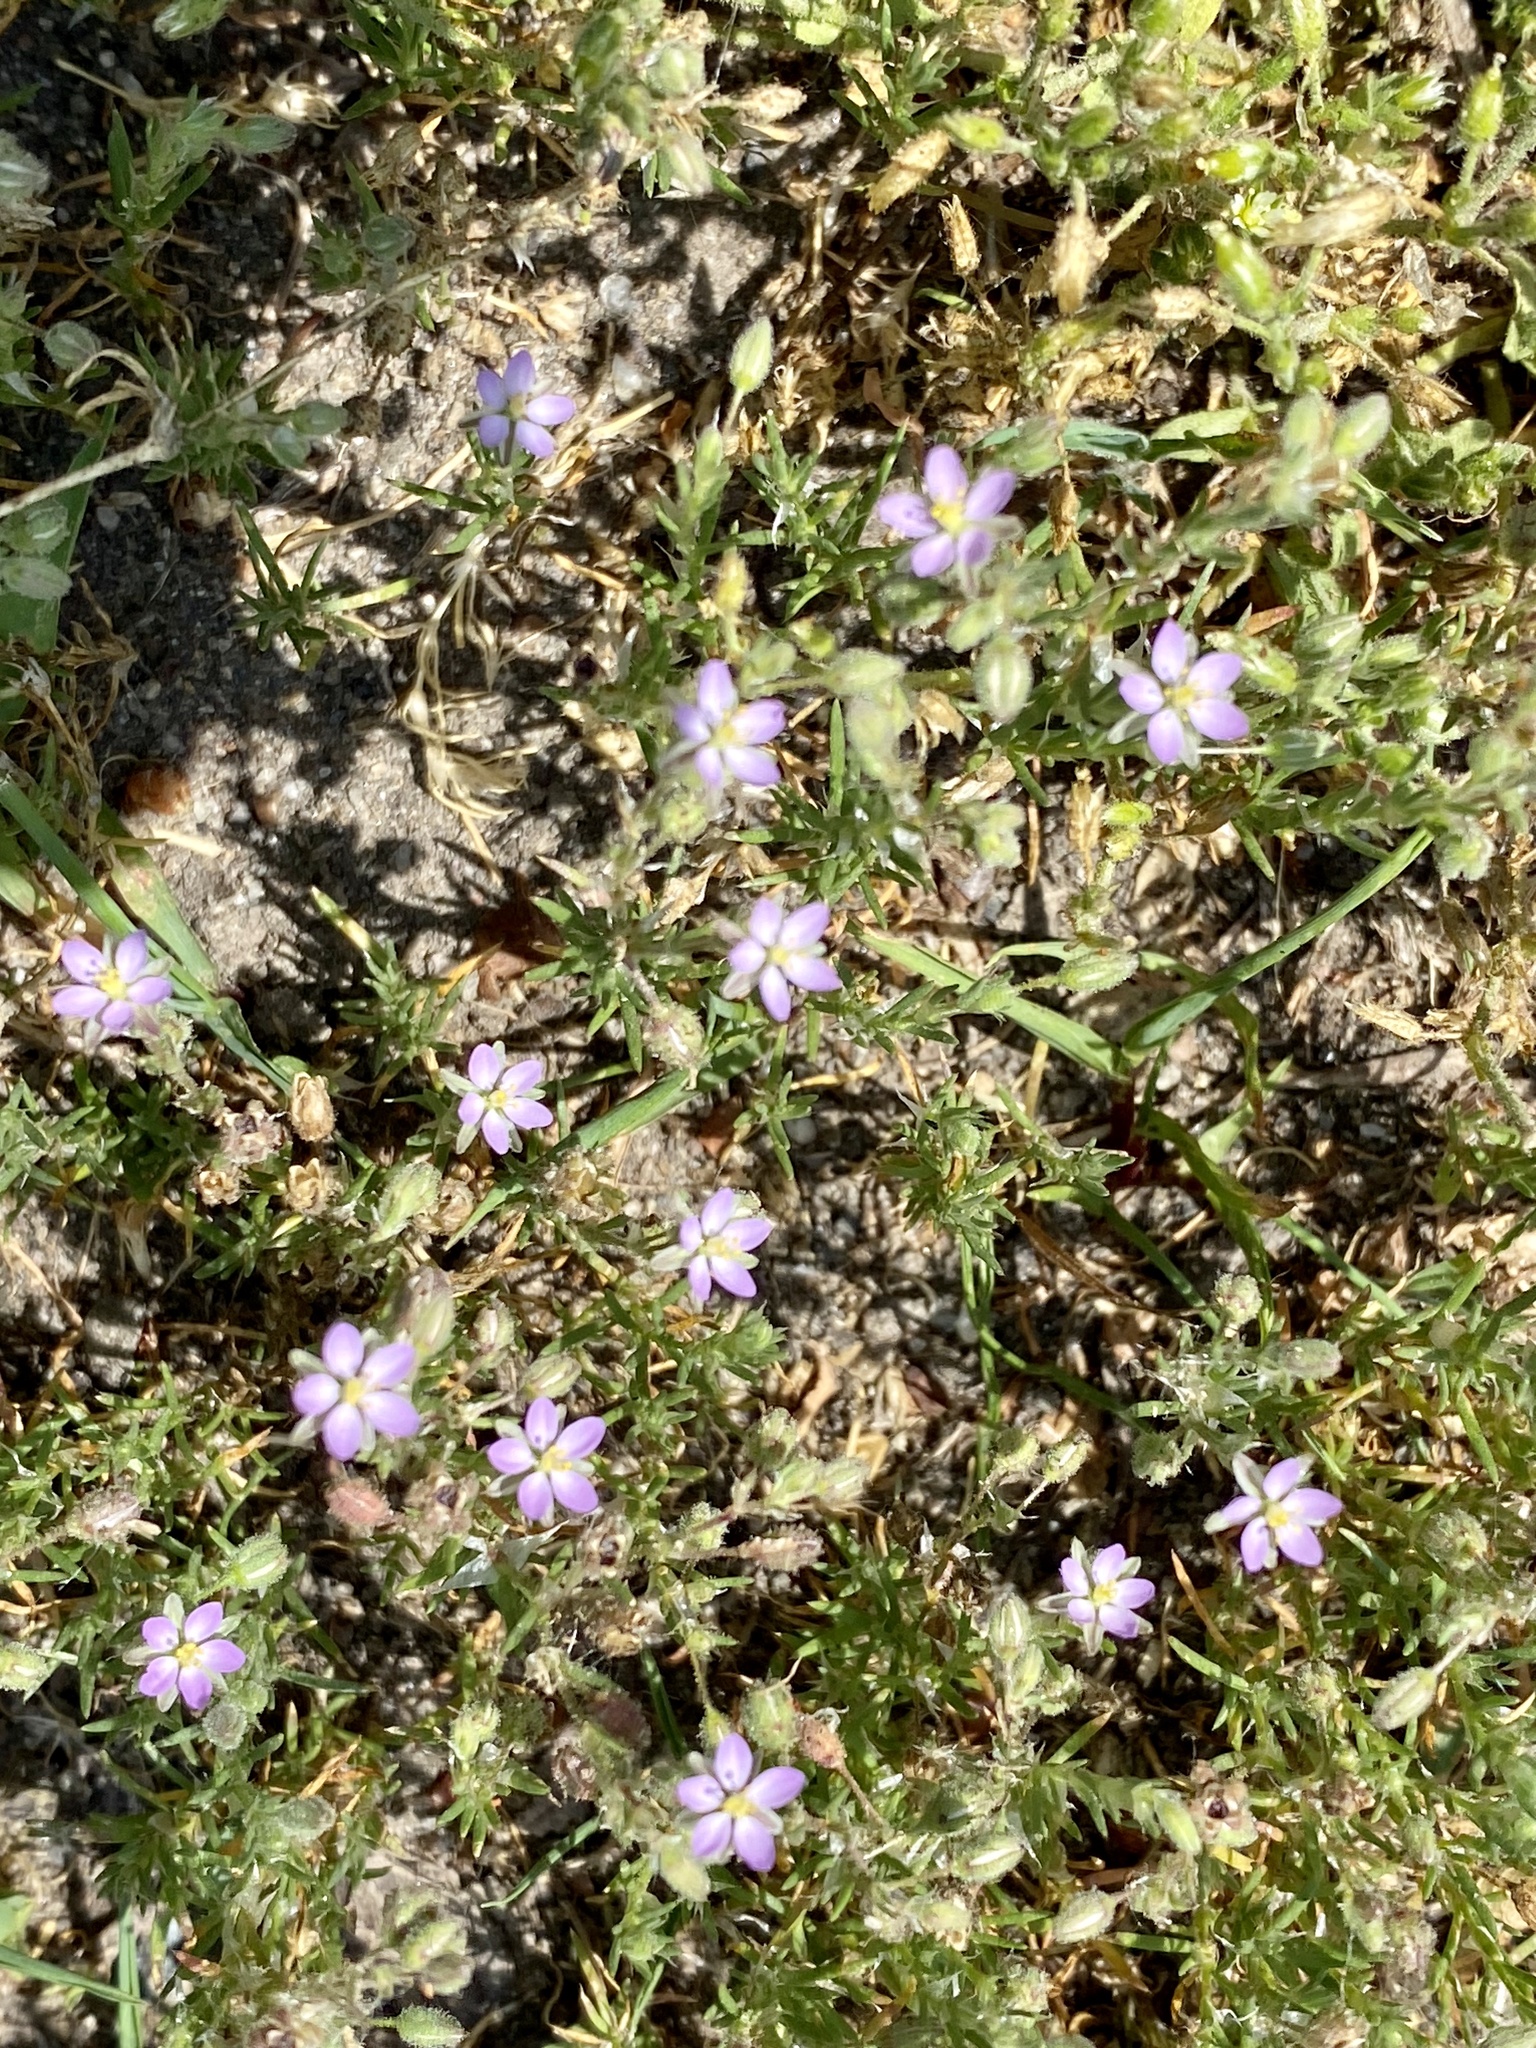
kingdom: Plantae
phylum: Tracheophyta
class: Magnoliopsida
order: Caryophyllales
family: Caryophyllaceae
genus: Spergularia
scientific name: Spergularia rubra
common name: Red sand-spurrey
